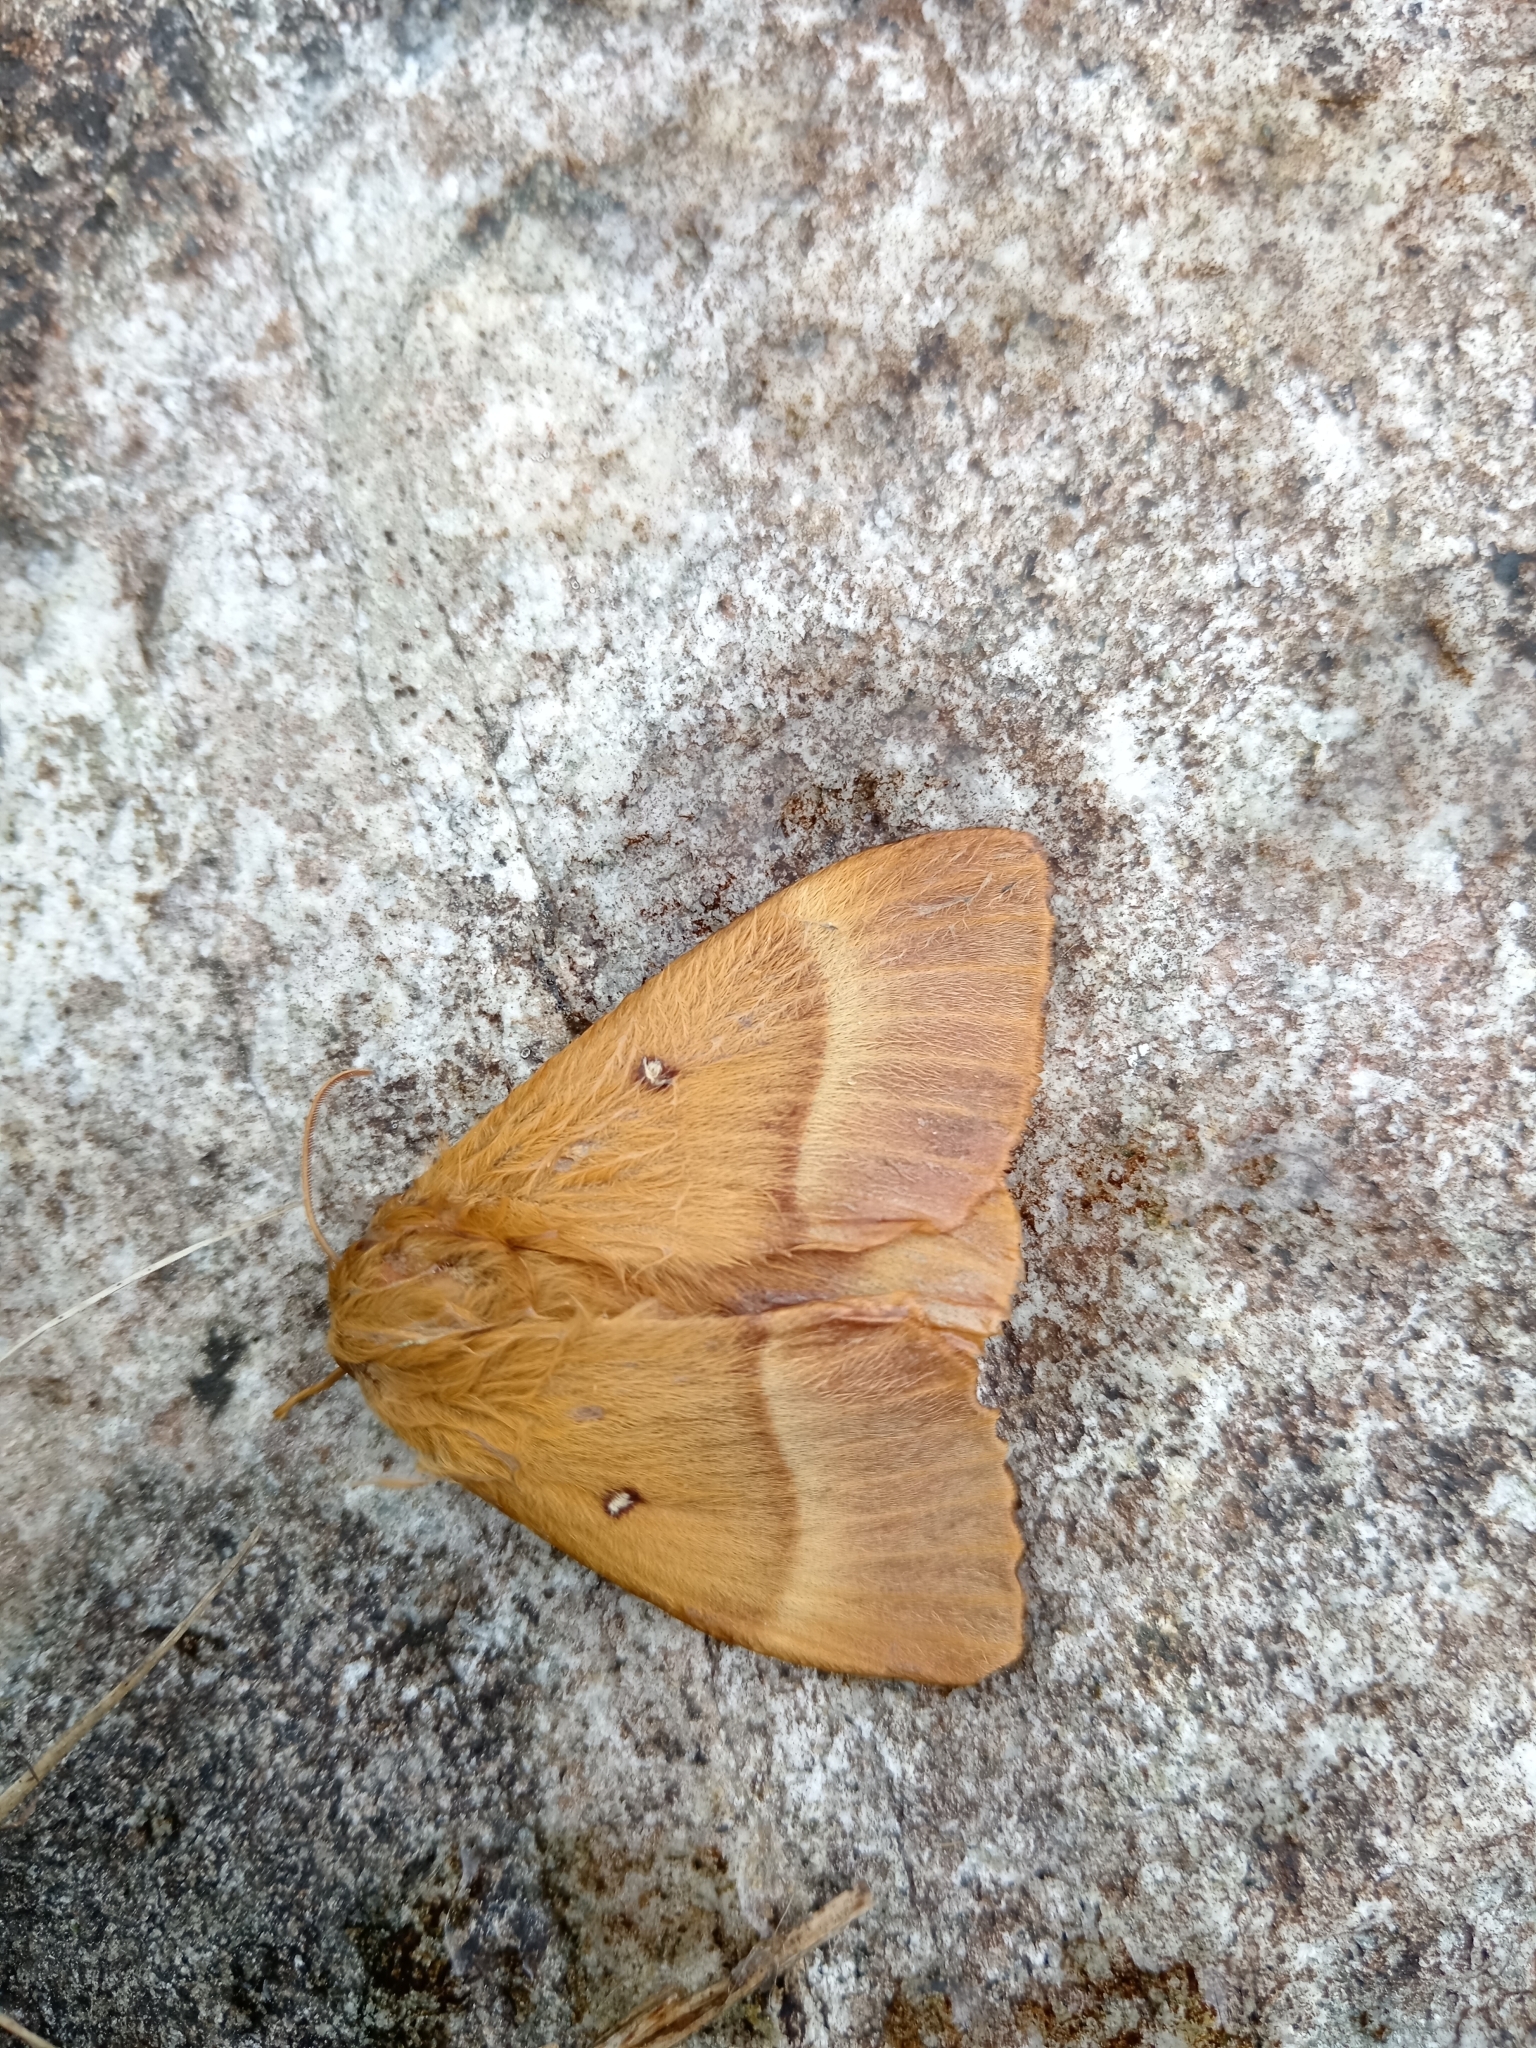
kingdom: Animalia
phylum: Arthropoda
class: Insecta
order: Lepidoptera
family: Lasiocampidae
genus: Lasiocampa
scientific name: Lasiocampa quercus
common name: Oak eggar
